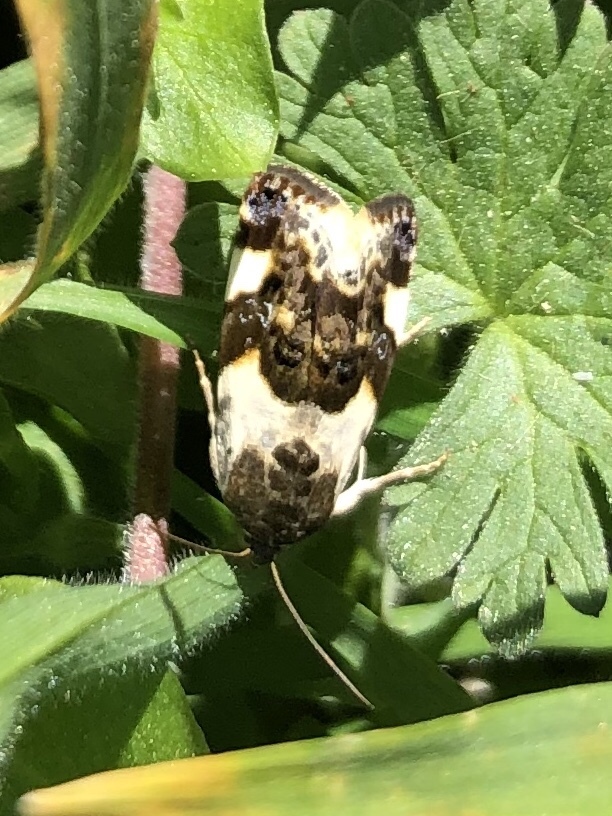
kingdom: Animalia
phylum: Arthropoda
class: Insecta
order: Lepidoptera
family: Noctuidae
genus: Acontia
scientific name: Acontia lucida
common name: Pale shoulder
